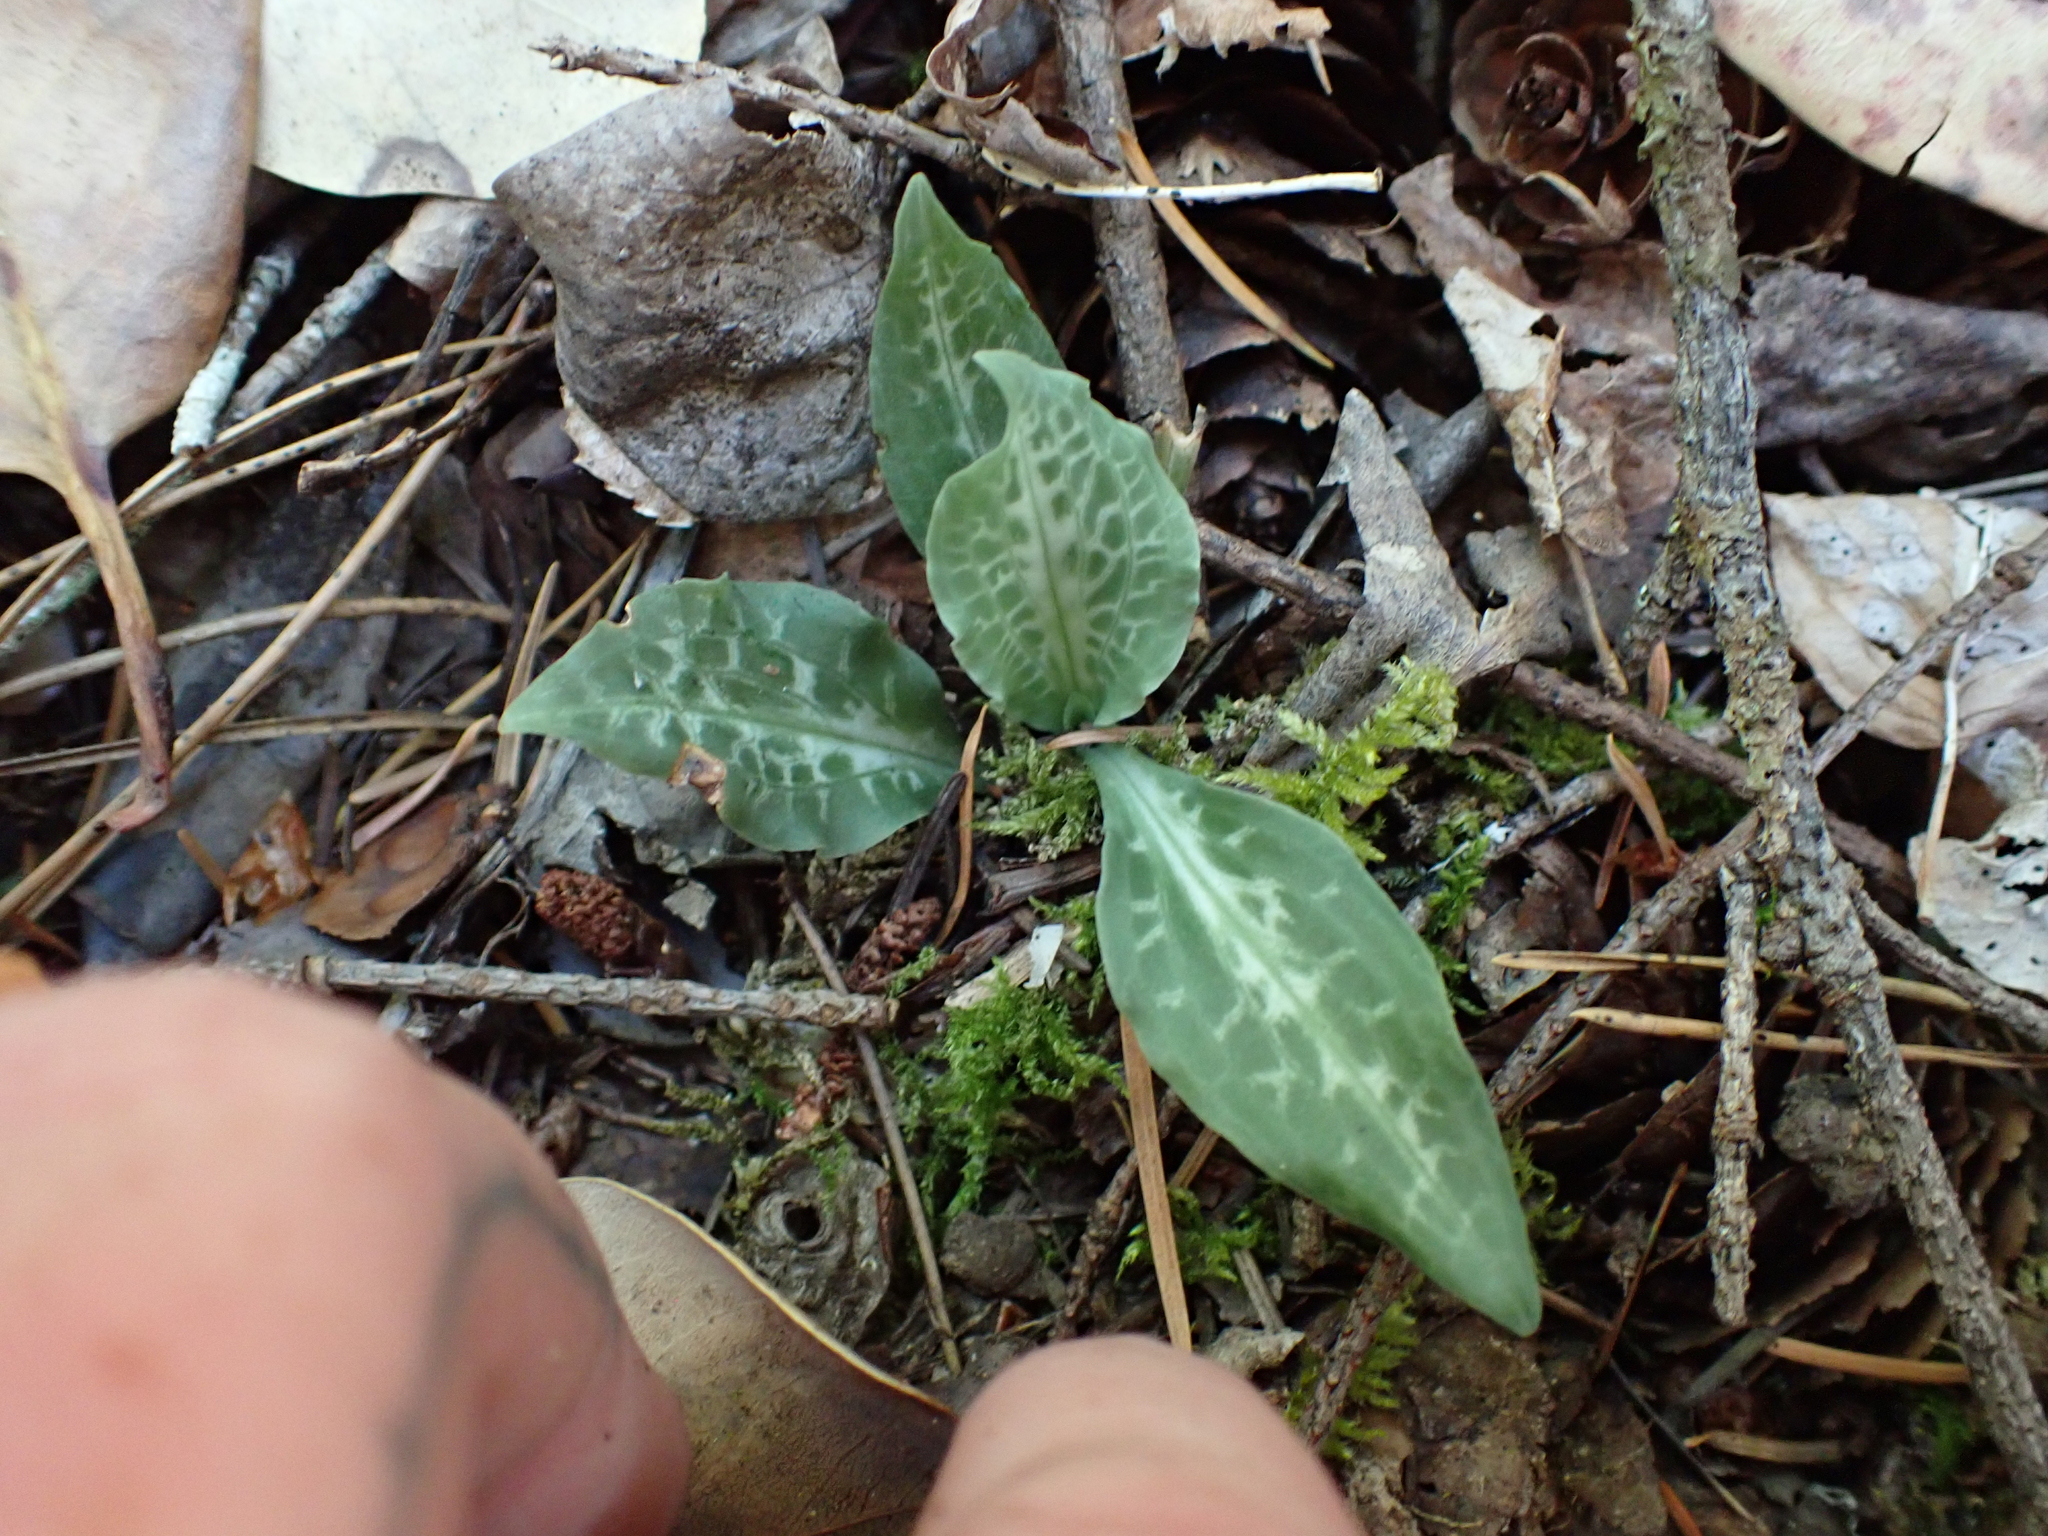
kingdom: Plantae
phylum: Tracheophyta
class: Liliopsida
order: Asparagales
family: Orchidaceae
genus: Goodyera
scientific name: Goodyera oblongifolia
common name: Giant rattlesnake-plantain
